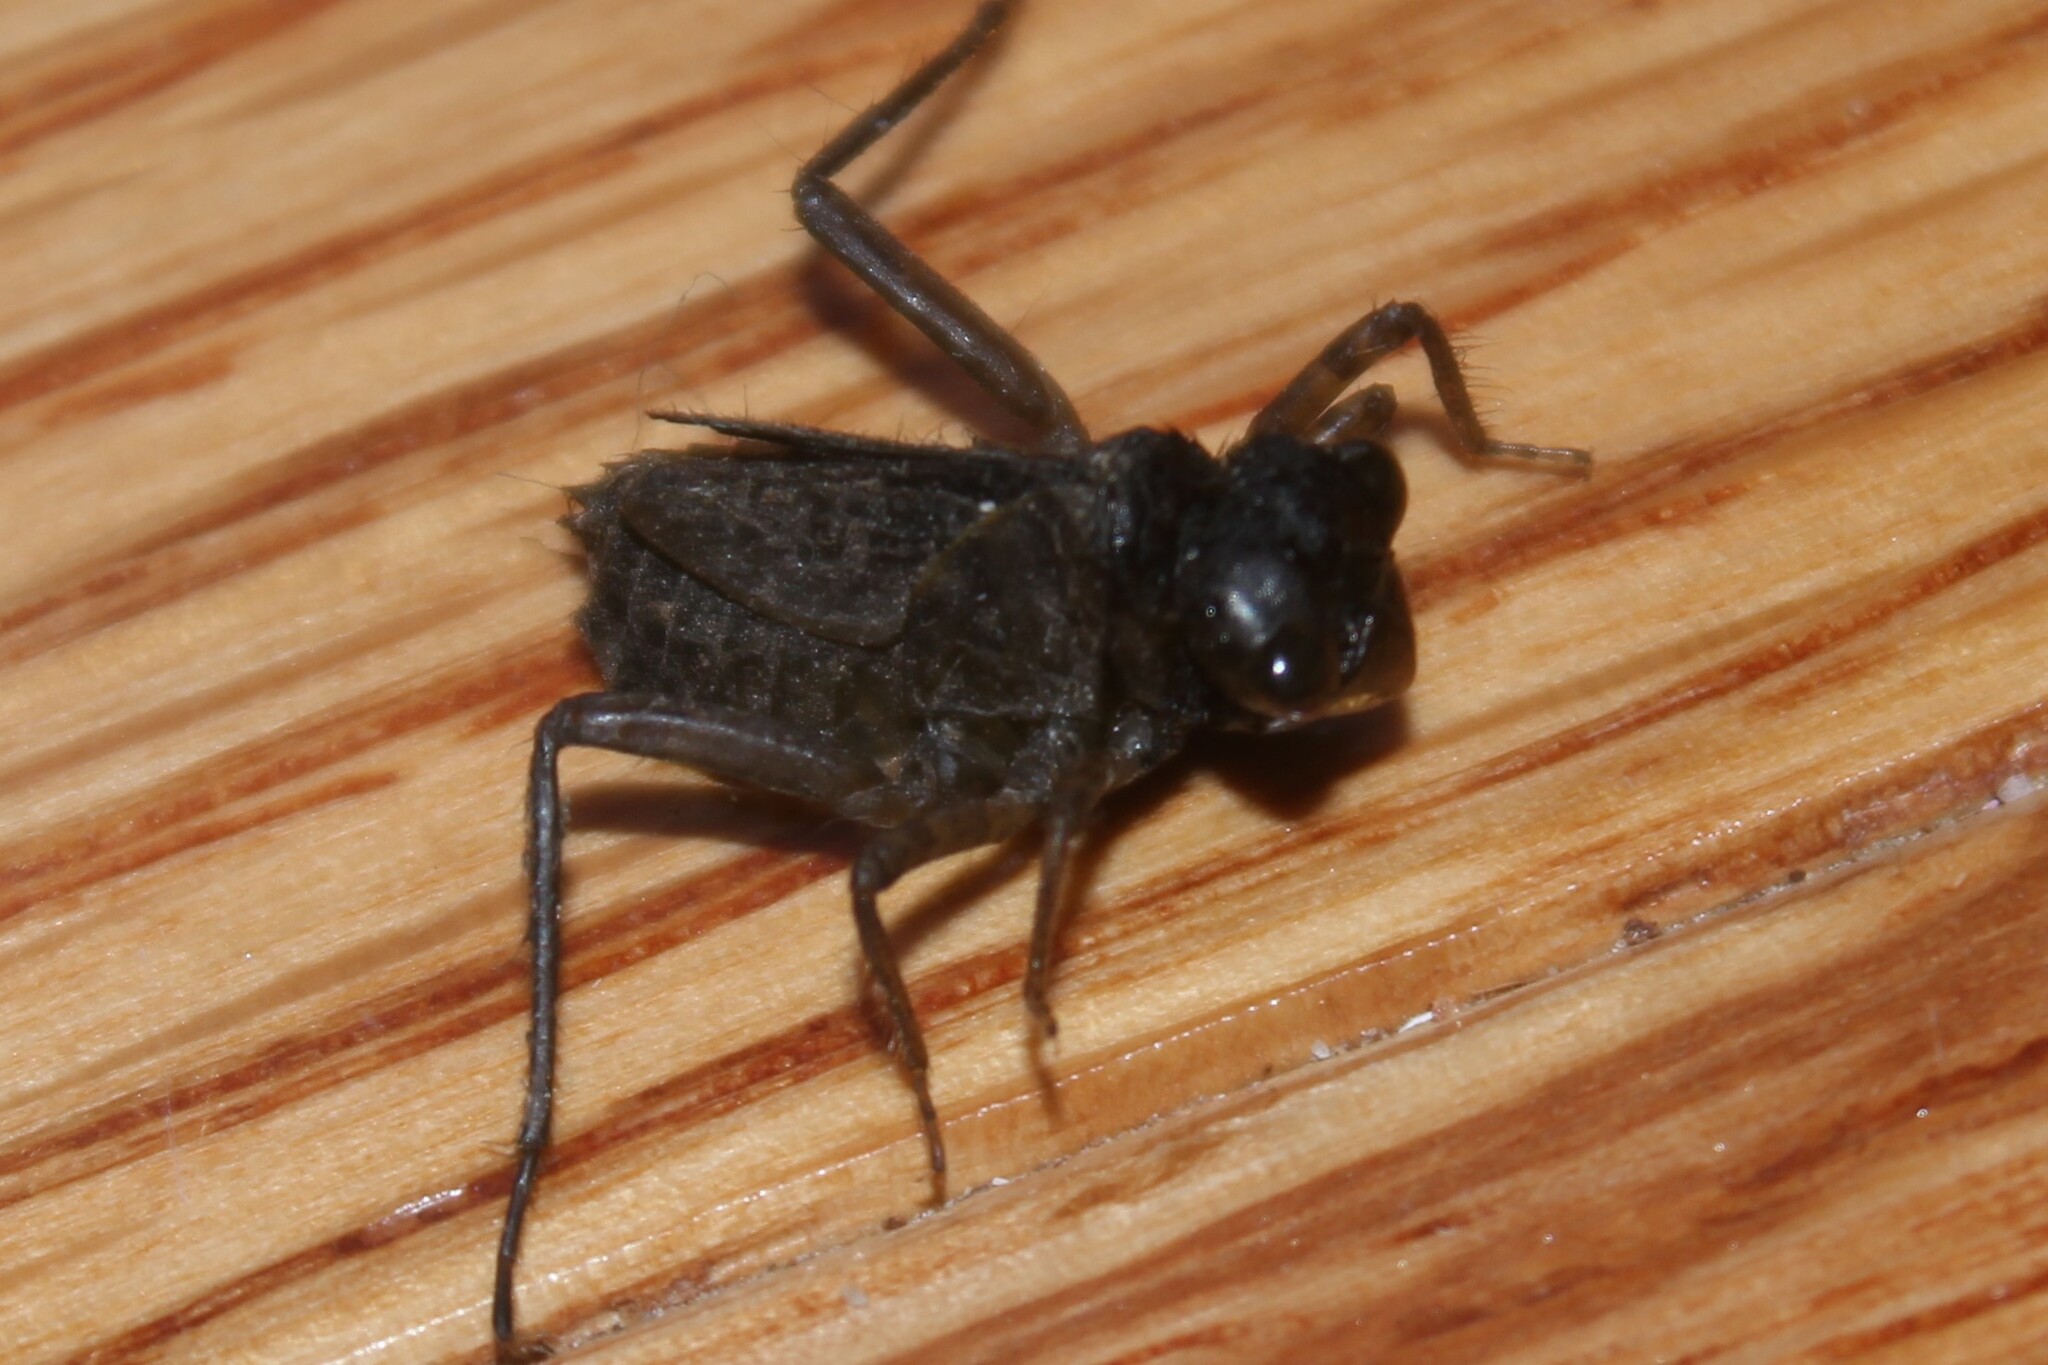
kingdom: Animalia
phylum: Arthropoda
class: Insecta
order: Odonata
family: Libellulidae
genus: Erythemis
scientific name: Erythemis simplicicollis
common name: Eastern pondhawk
